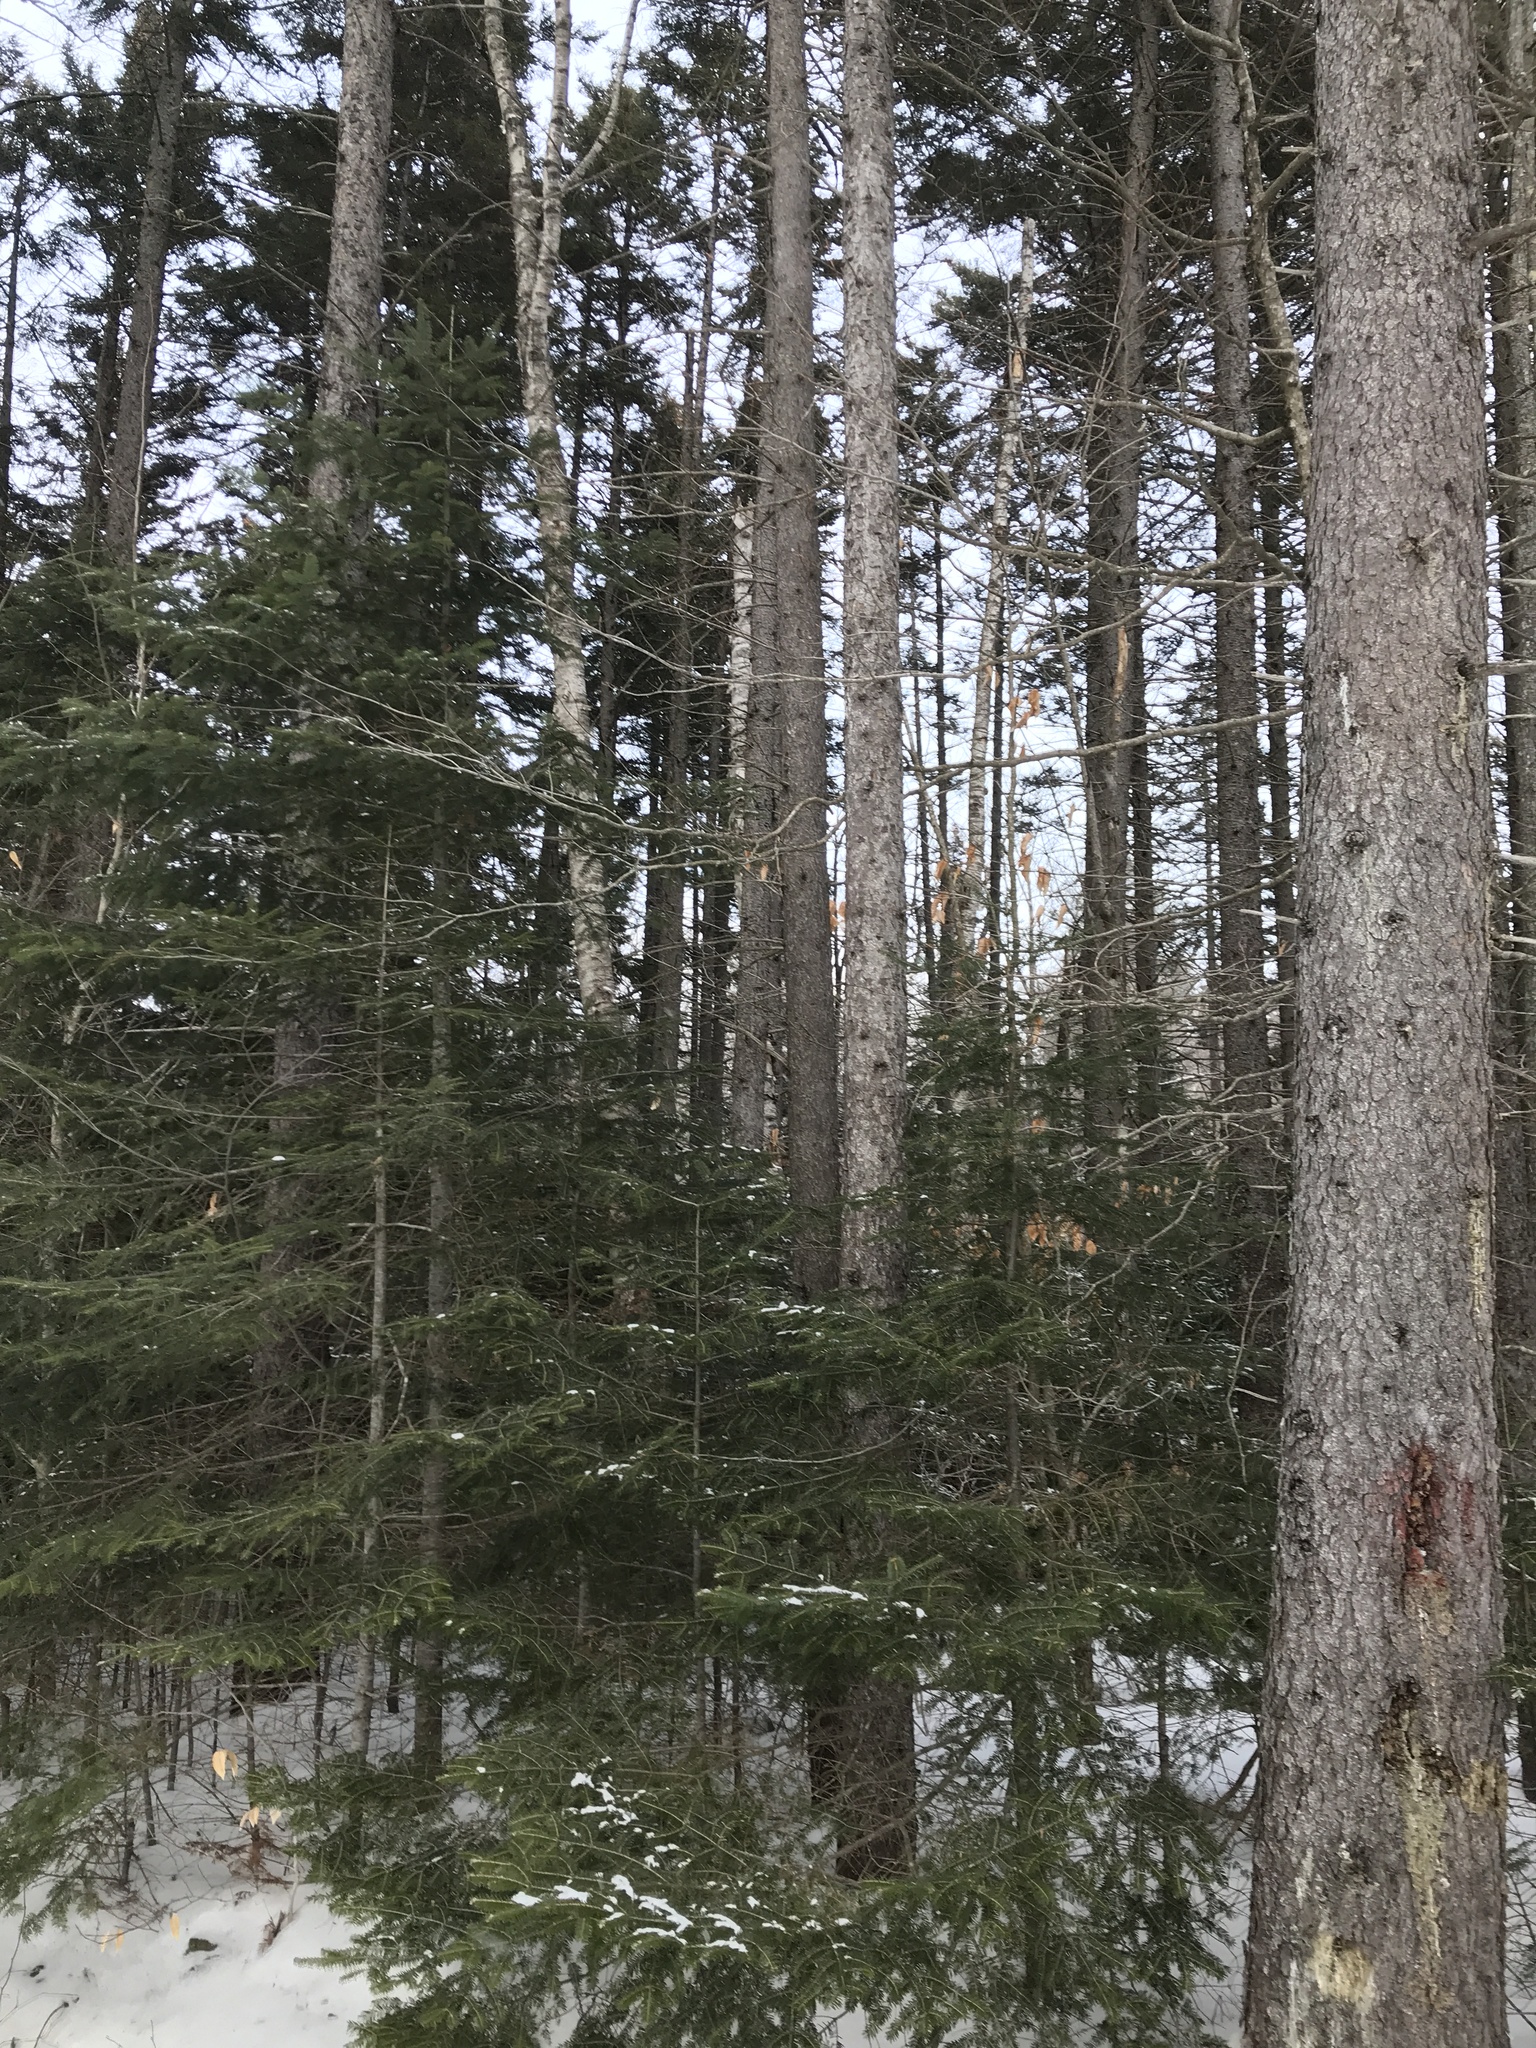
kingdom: Plantae
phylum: Tracheophyta
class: Pinopsida
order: Pinales
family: Pinaceae
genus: Picea
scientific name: Picea rubens
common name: Red spruce
